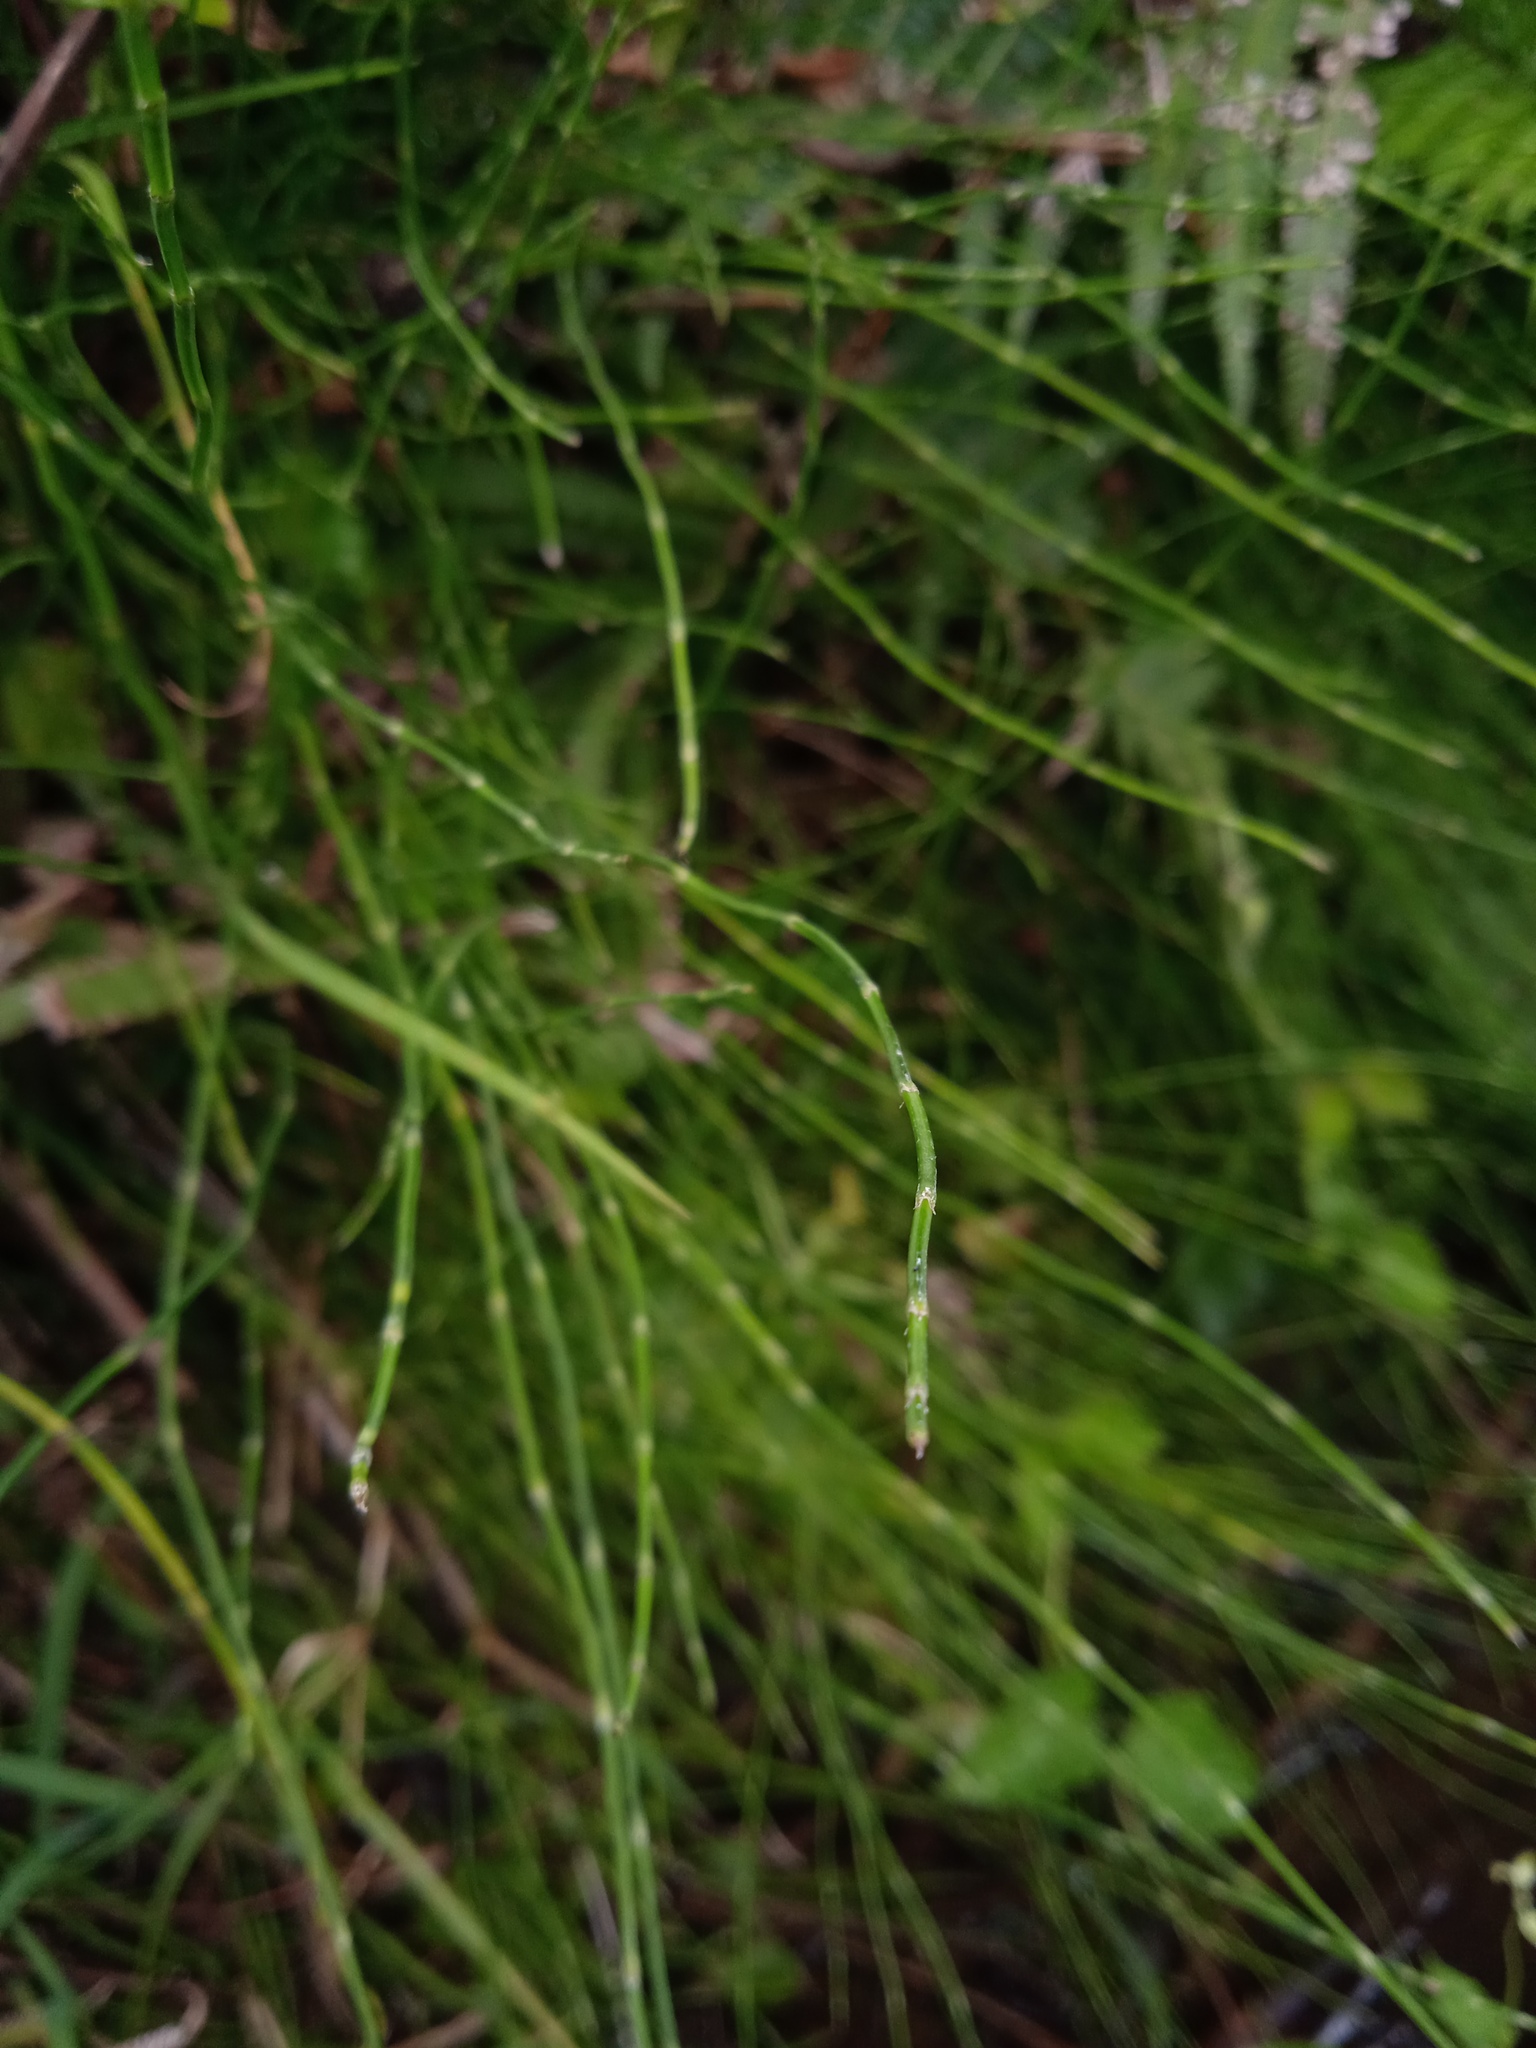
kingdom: Plantae
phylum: Tracheophyta
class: Polypodiopsida
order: Equisetales
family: Equisetaceae
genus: Equisetum
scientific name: Equisetum bogotense
